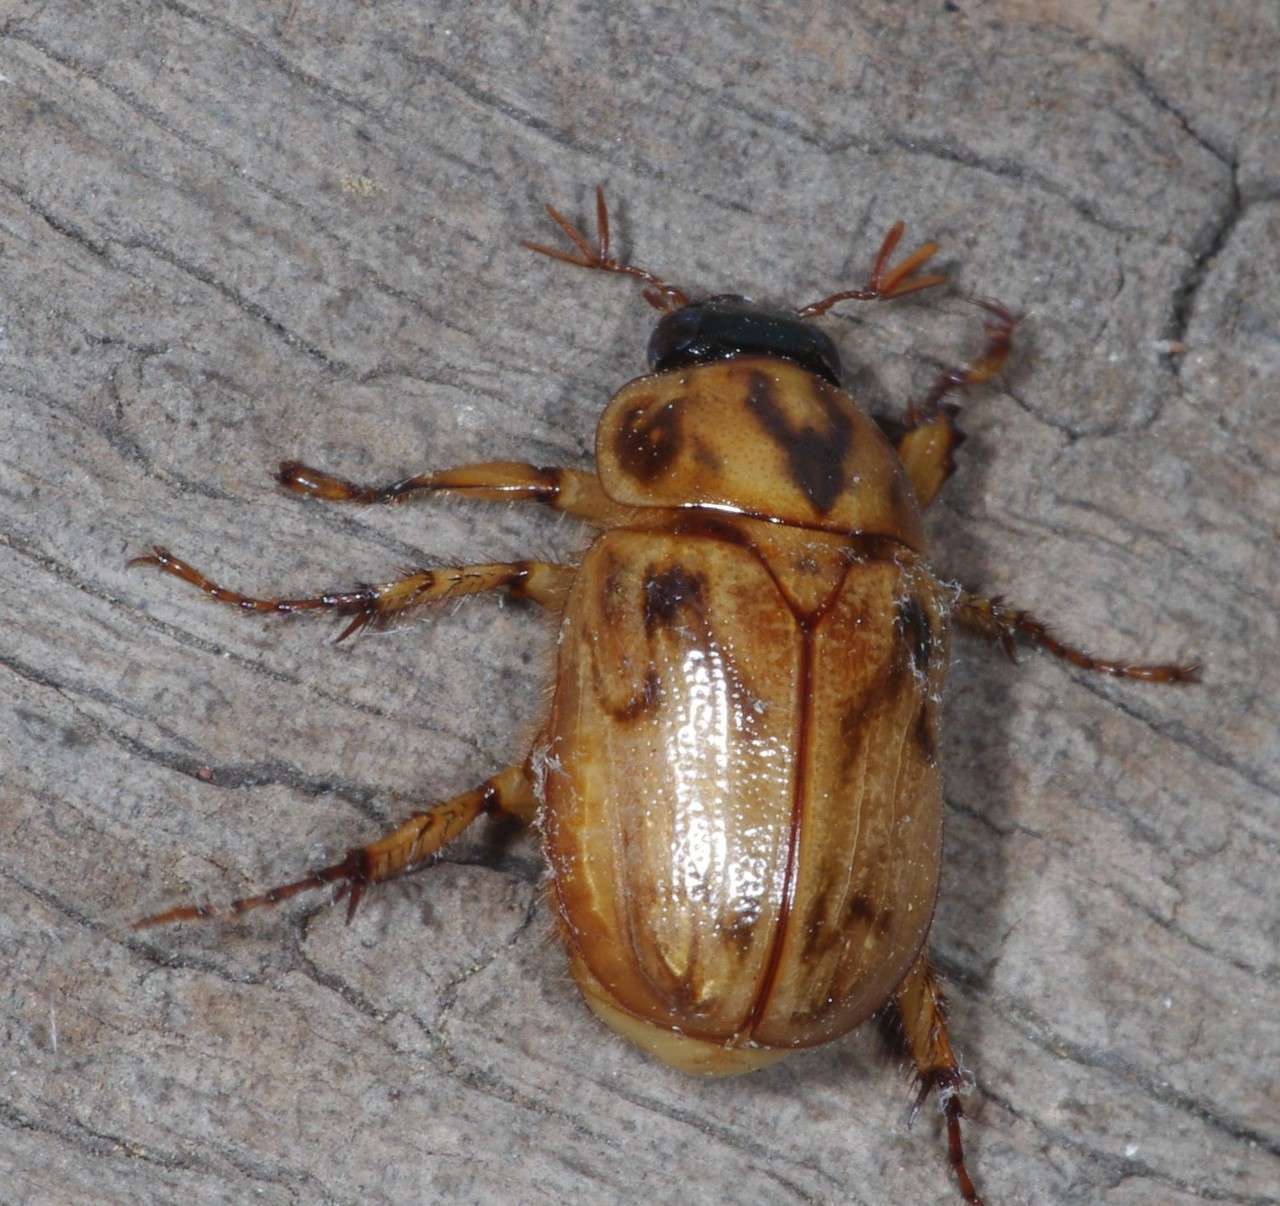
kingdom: Animalia
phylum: Arthropoda
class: Insecta
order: Coleoptera
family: Scarabaeidae
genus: Cyclocephala
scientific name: Cyclocephala signaticollis
